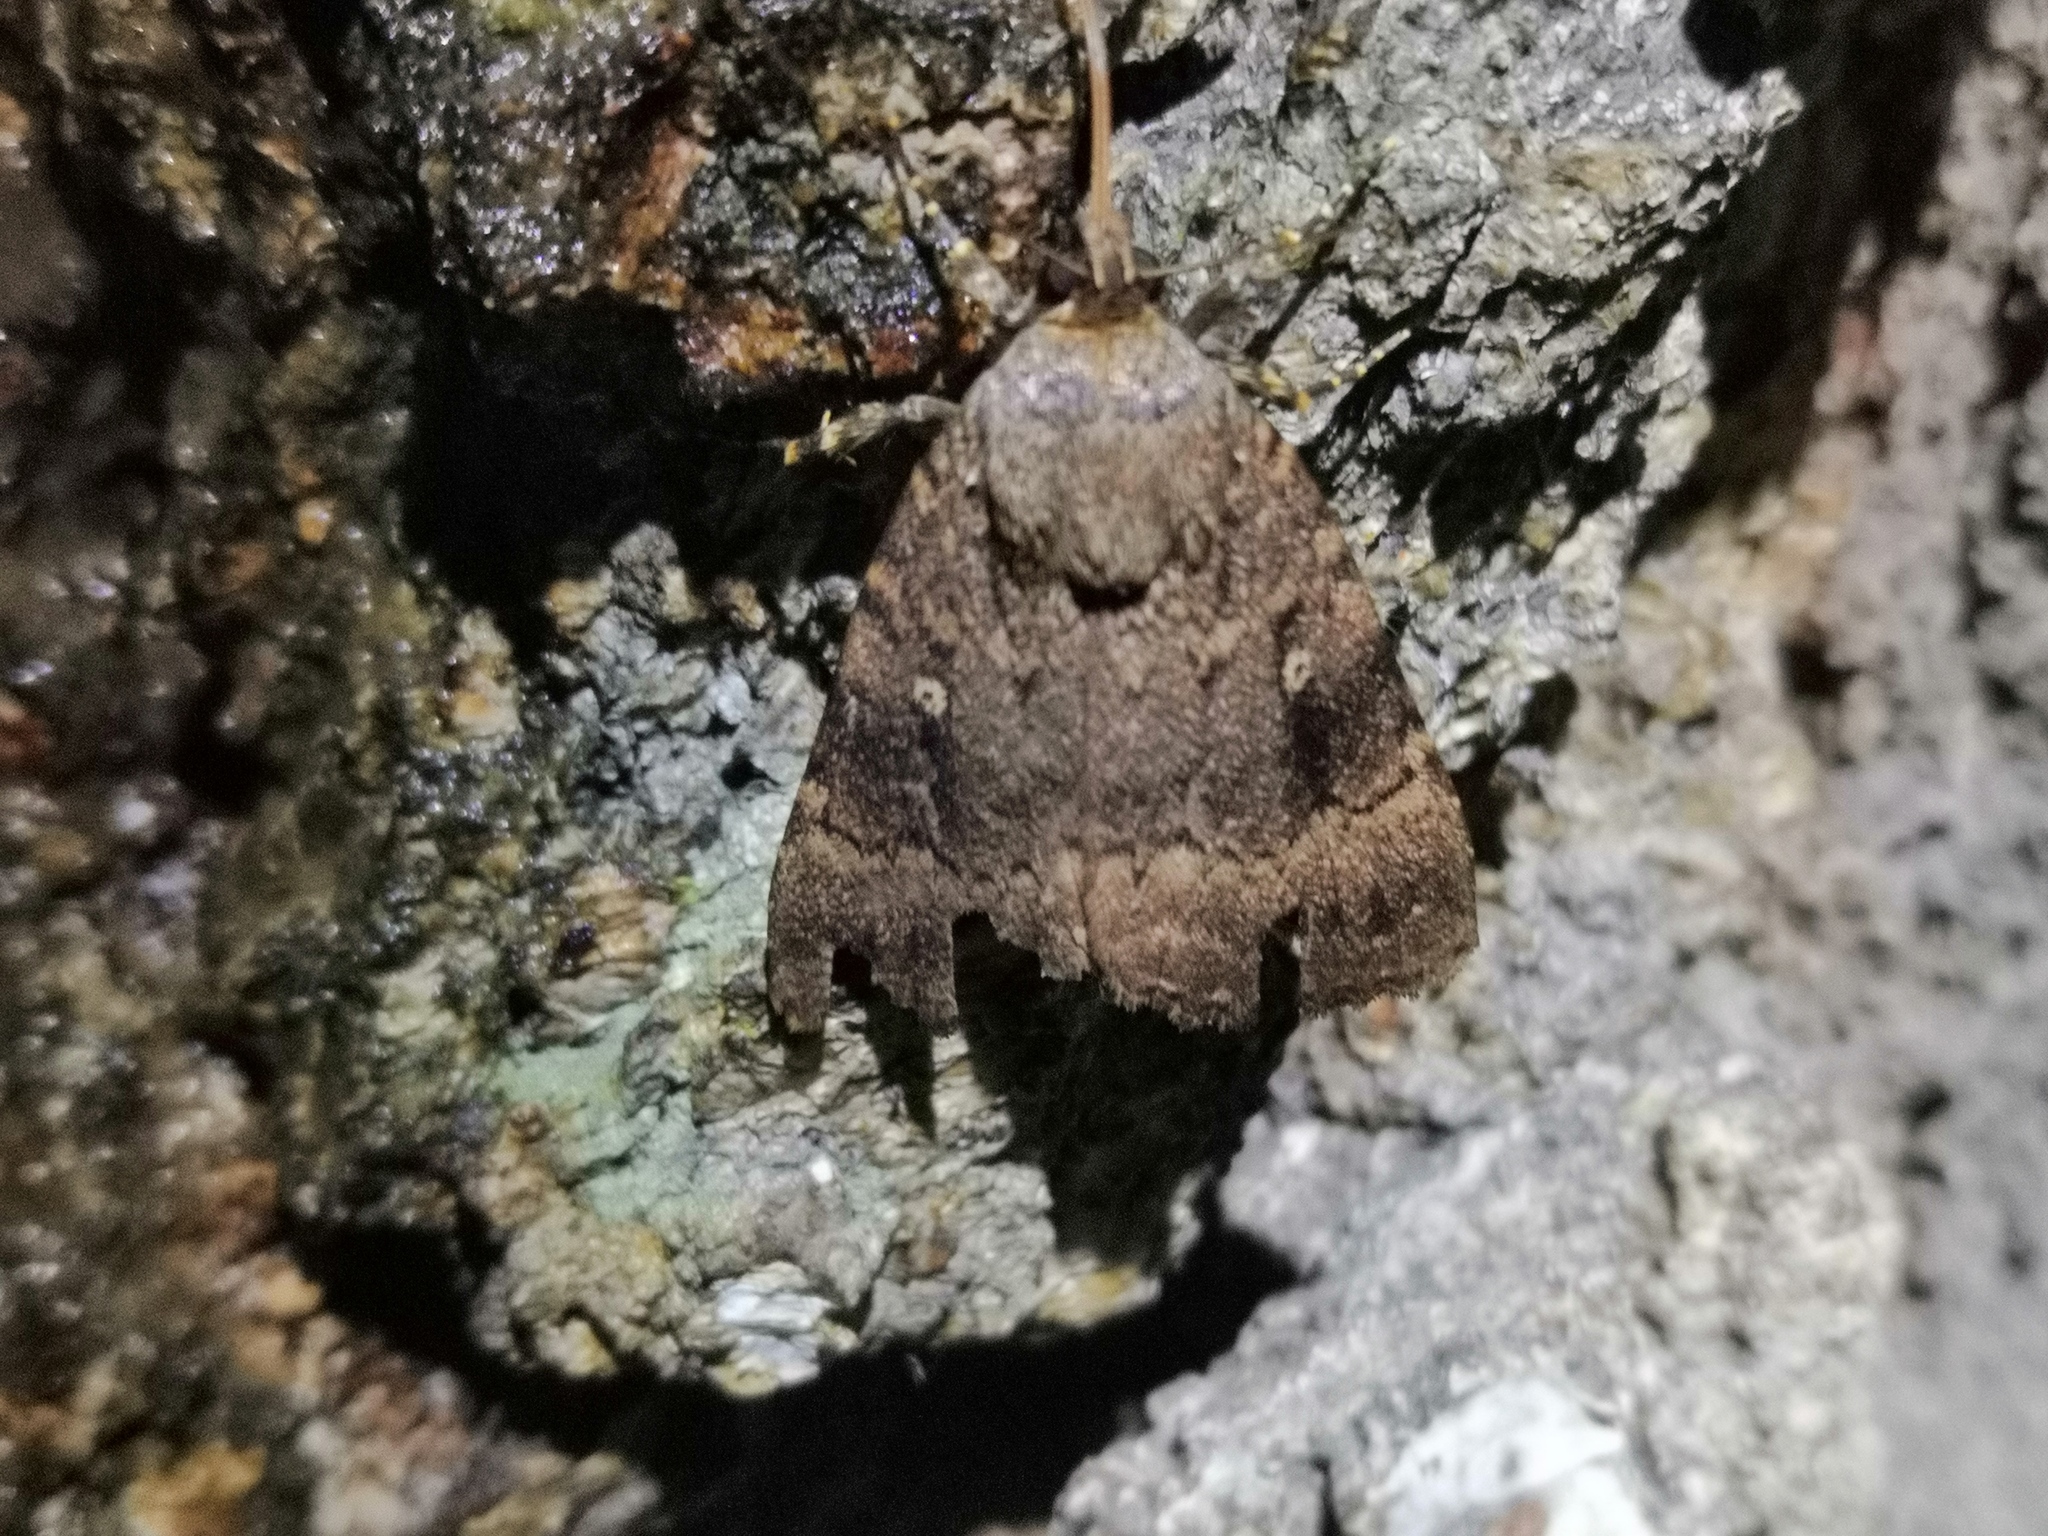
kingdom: Animalia
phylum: Arthropoda
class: Insecta
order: Lepidoptera
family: Noctuidae
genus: Amphipyra
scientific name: Amphipyra pyramidea
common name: Copper underwing
